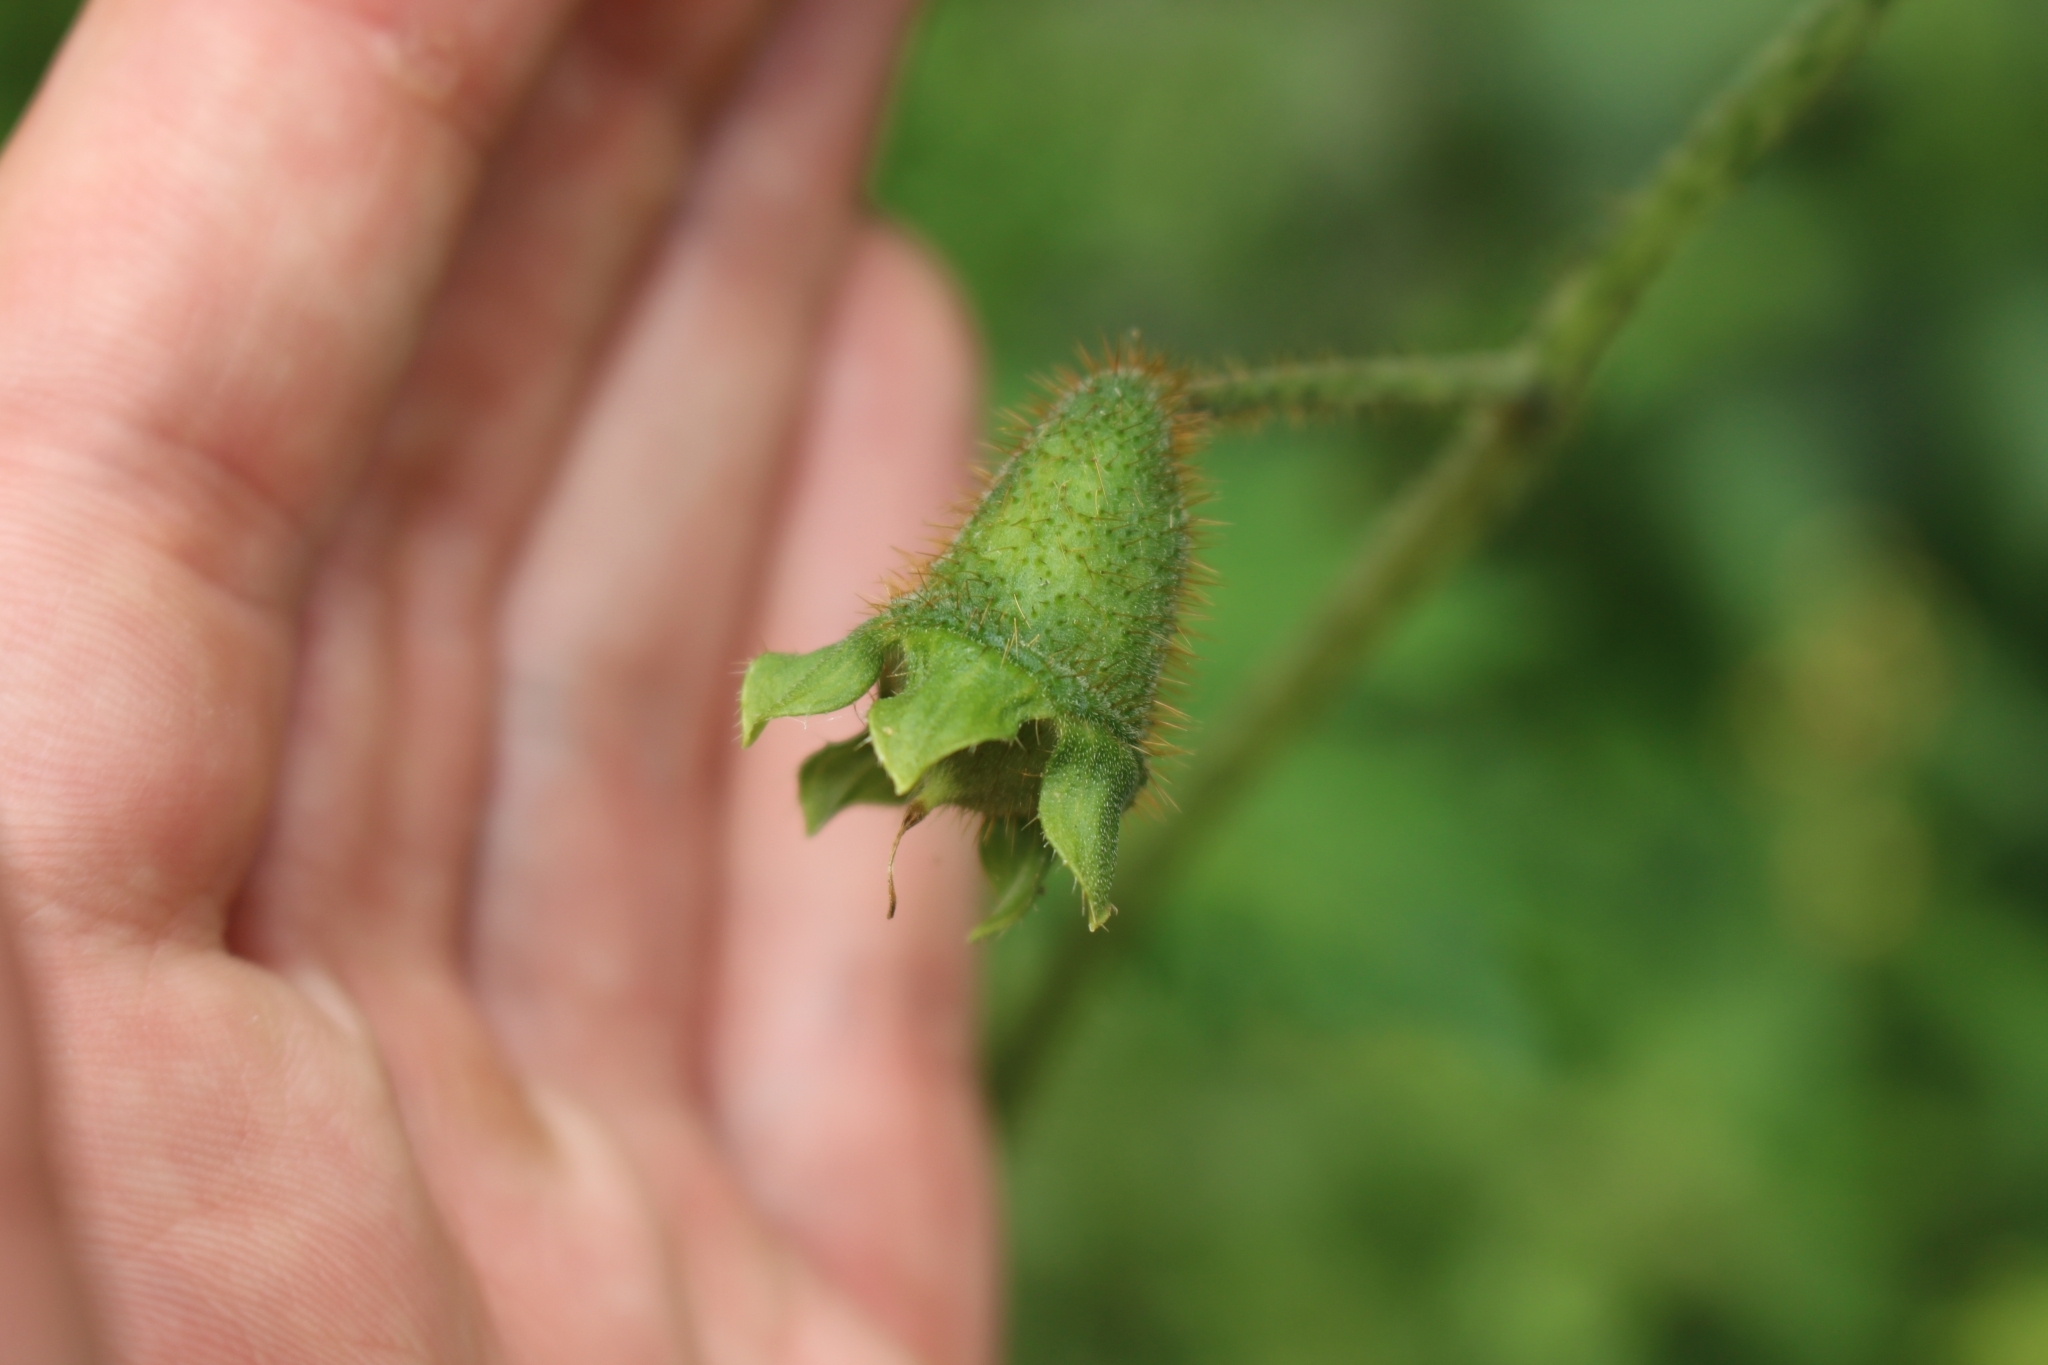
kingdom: Plantae
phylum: Tracheophyta
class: Magnoliopsida
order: Cornales
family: Loasaceae
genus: Nasa
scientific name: Nasa triphylla
